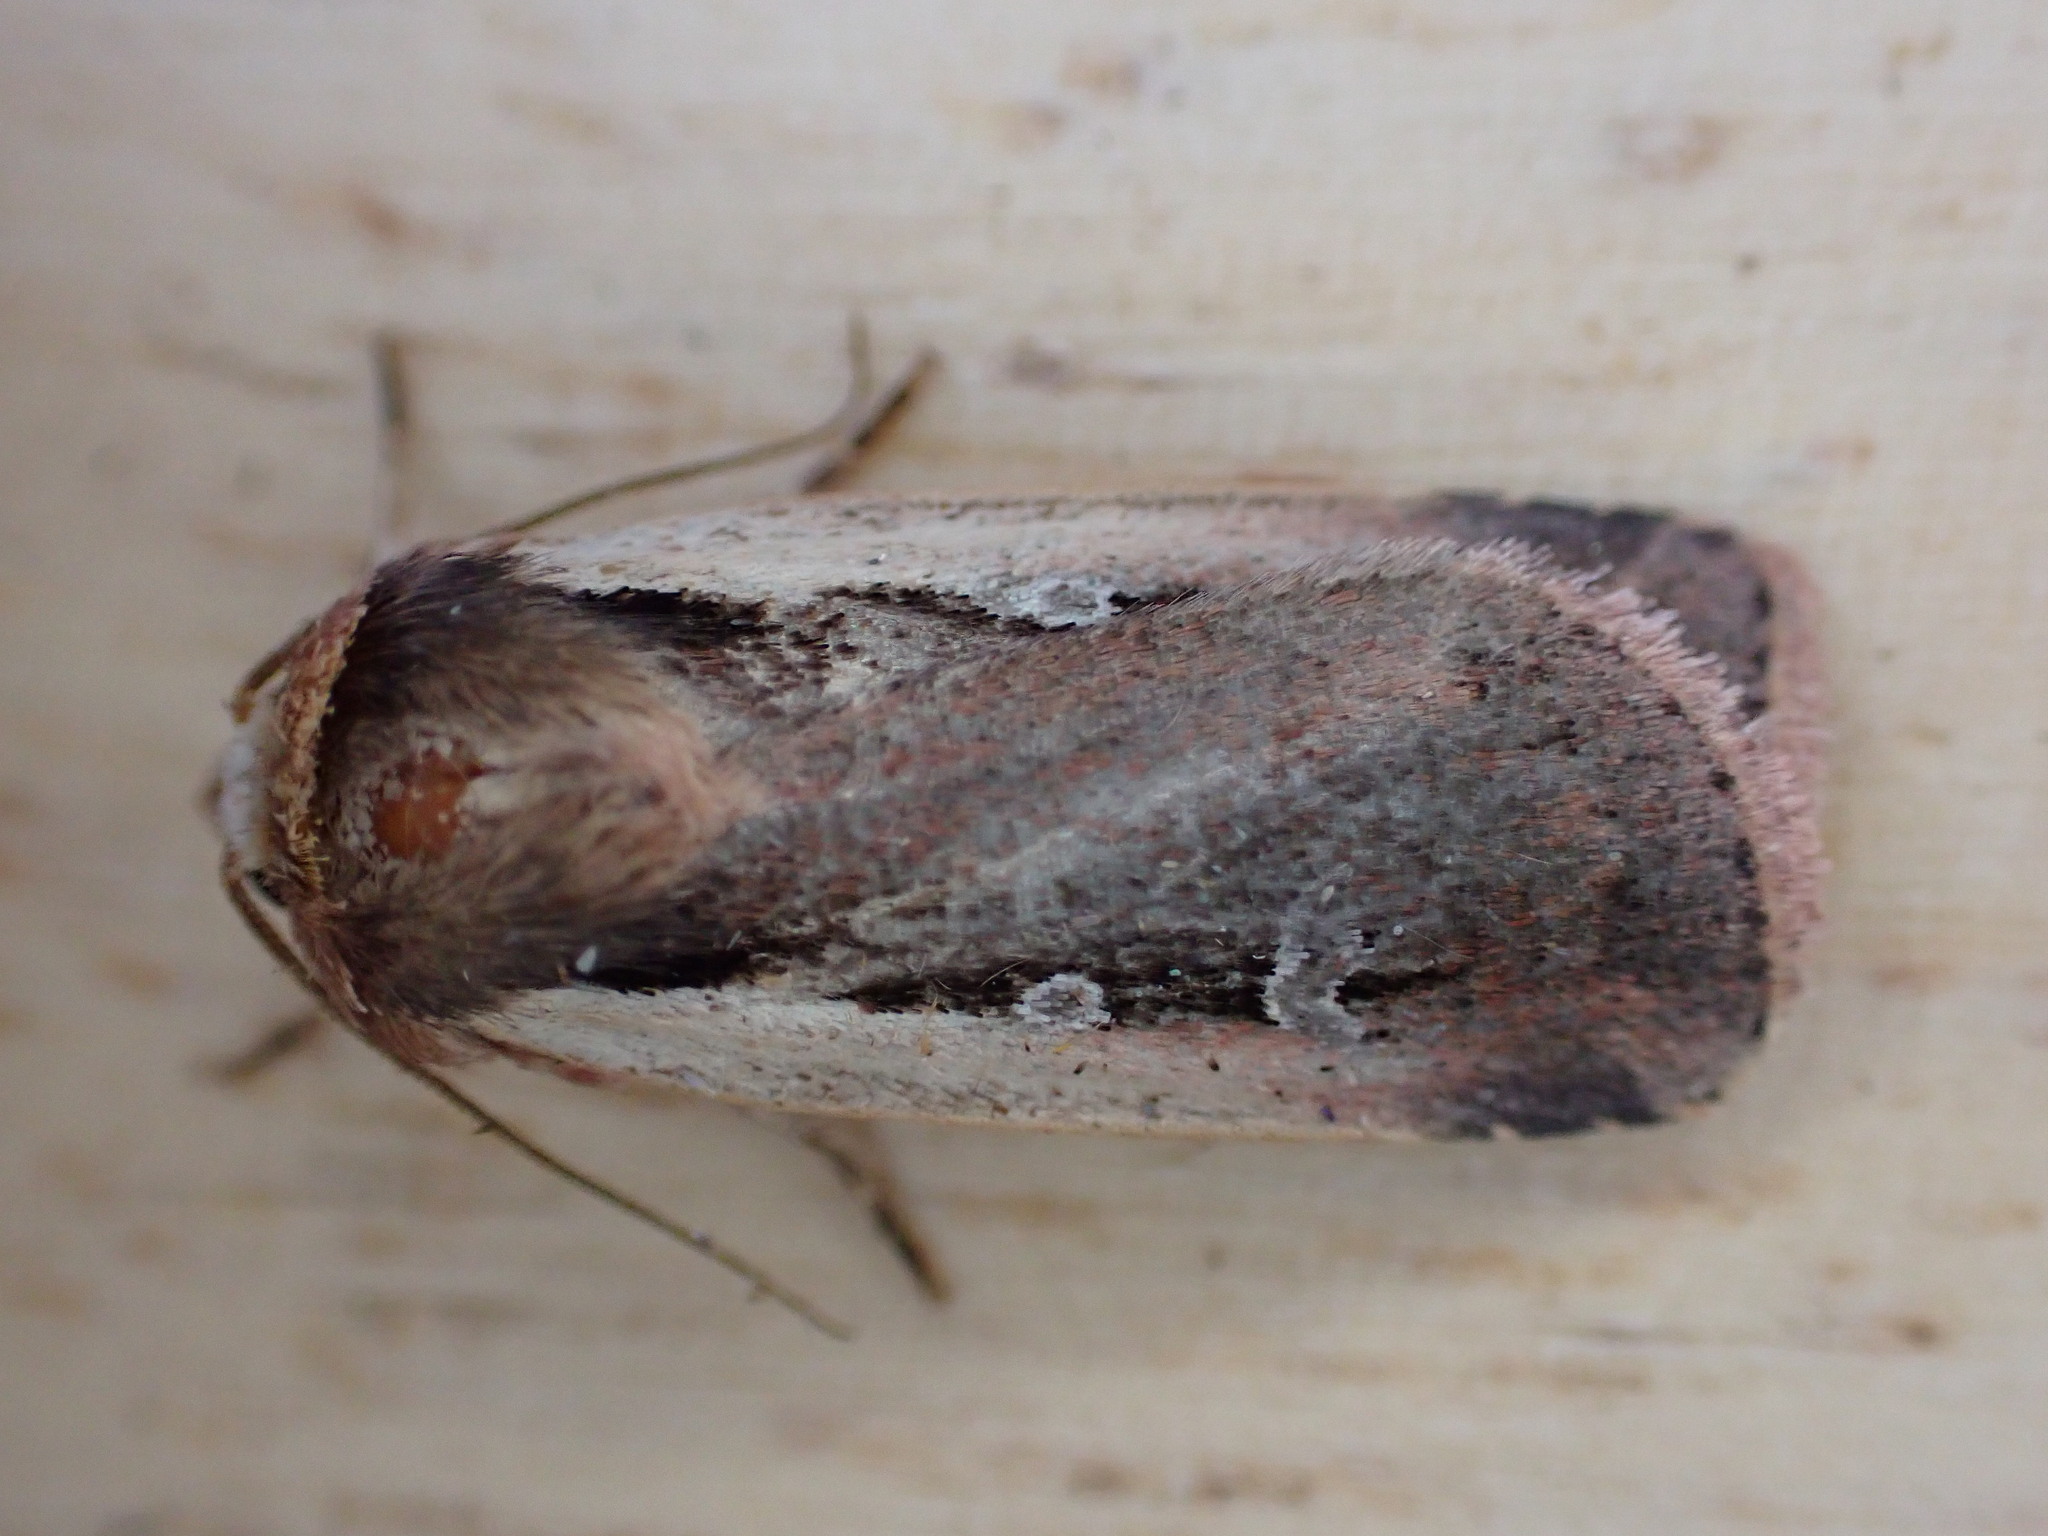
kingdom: Animalia
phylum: Arthropoda
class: Insecta
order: Lepidoptera
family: Noctuidae
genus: Ochropleura
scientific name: Ochropleura plecta
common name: Flame shoulder
